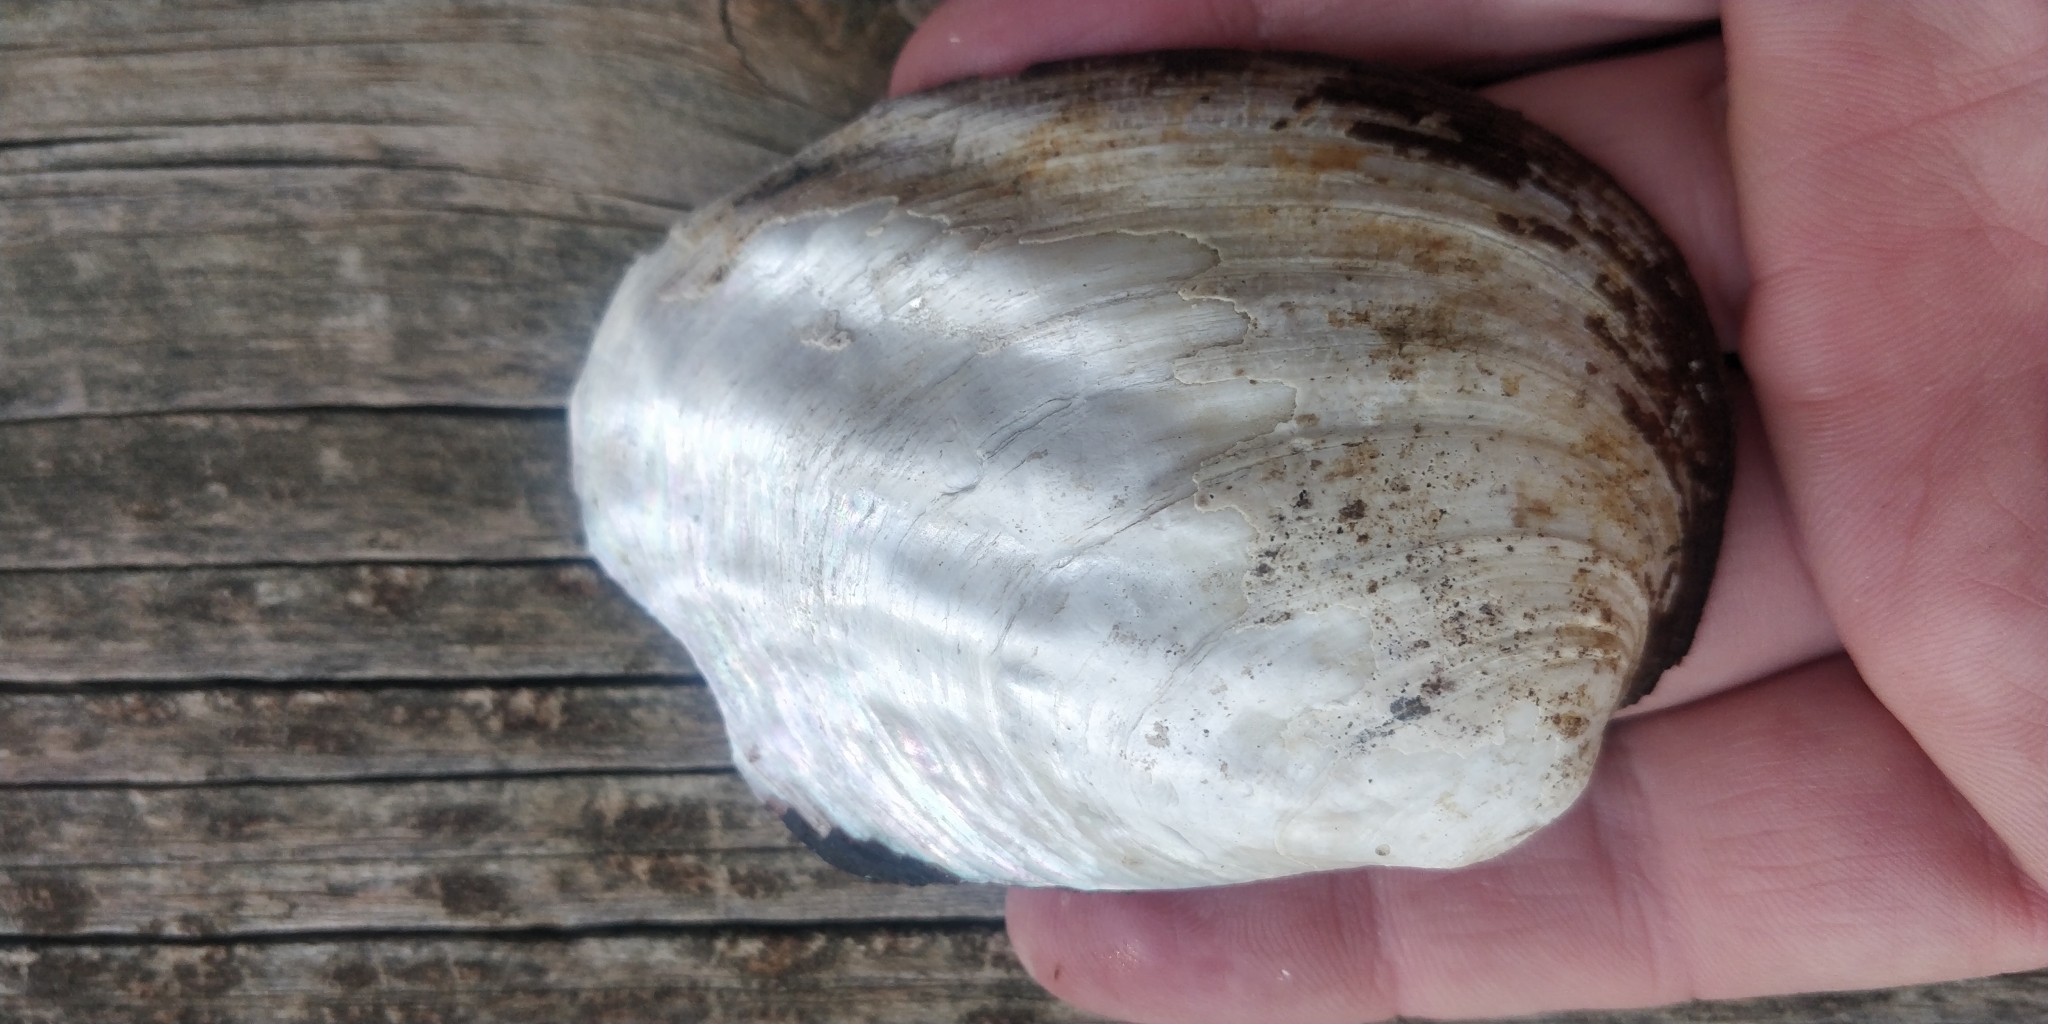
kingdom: Animalia
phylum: Mollusca
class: Bivalvia
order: Unionida
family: Unionidae
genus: Amblema
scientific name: Amblema plicata
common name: Threeridge
